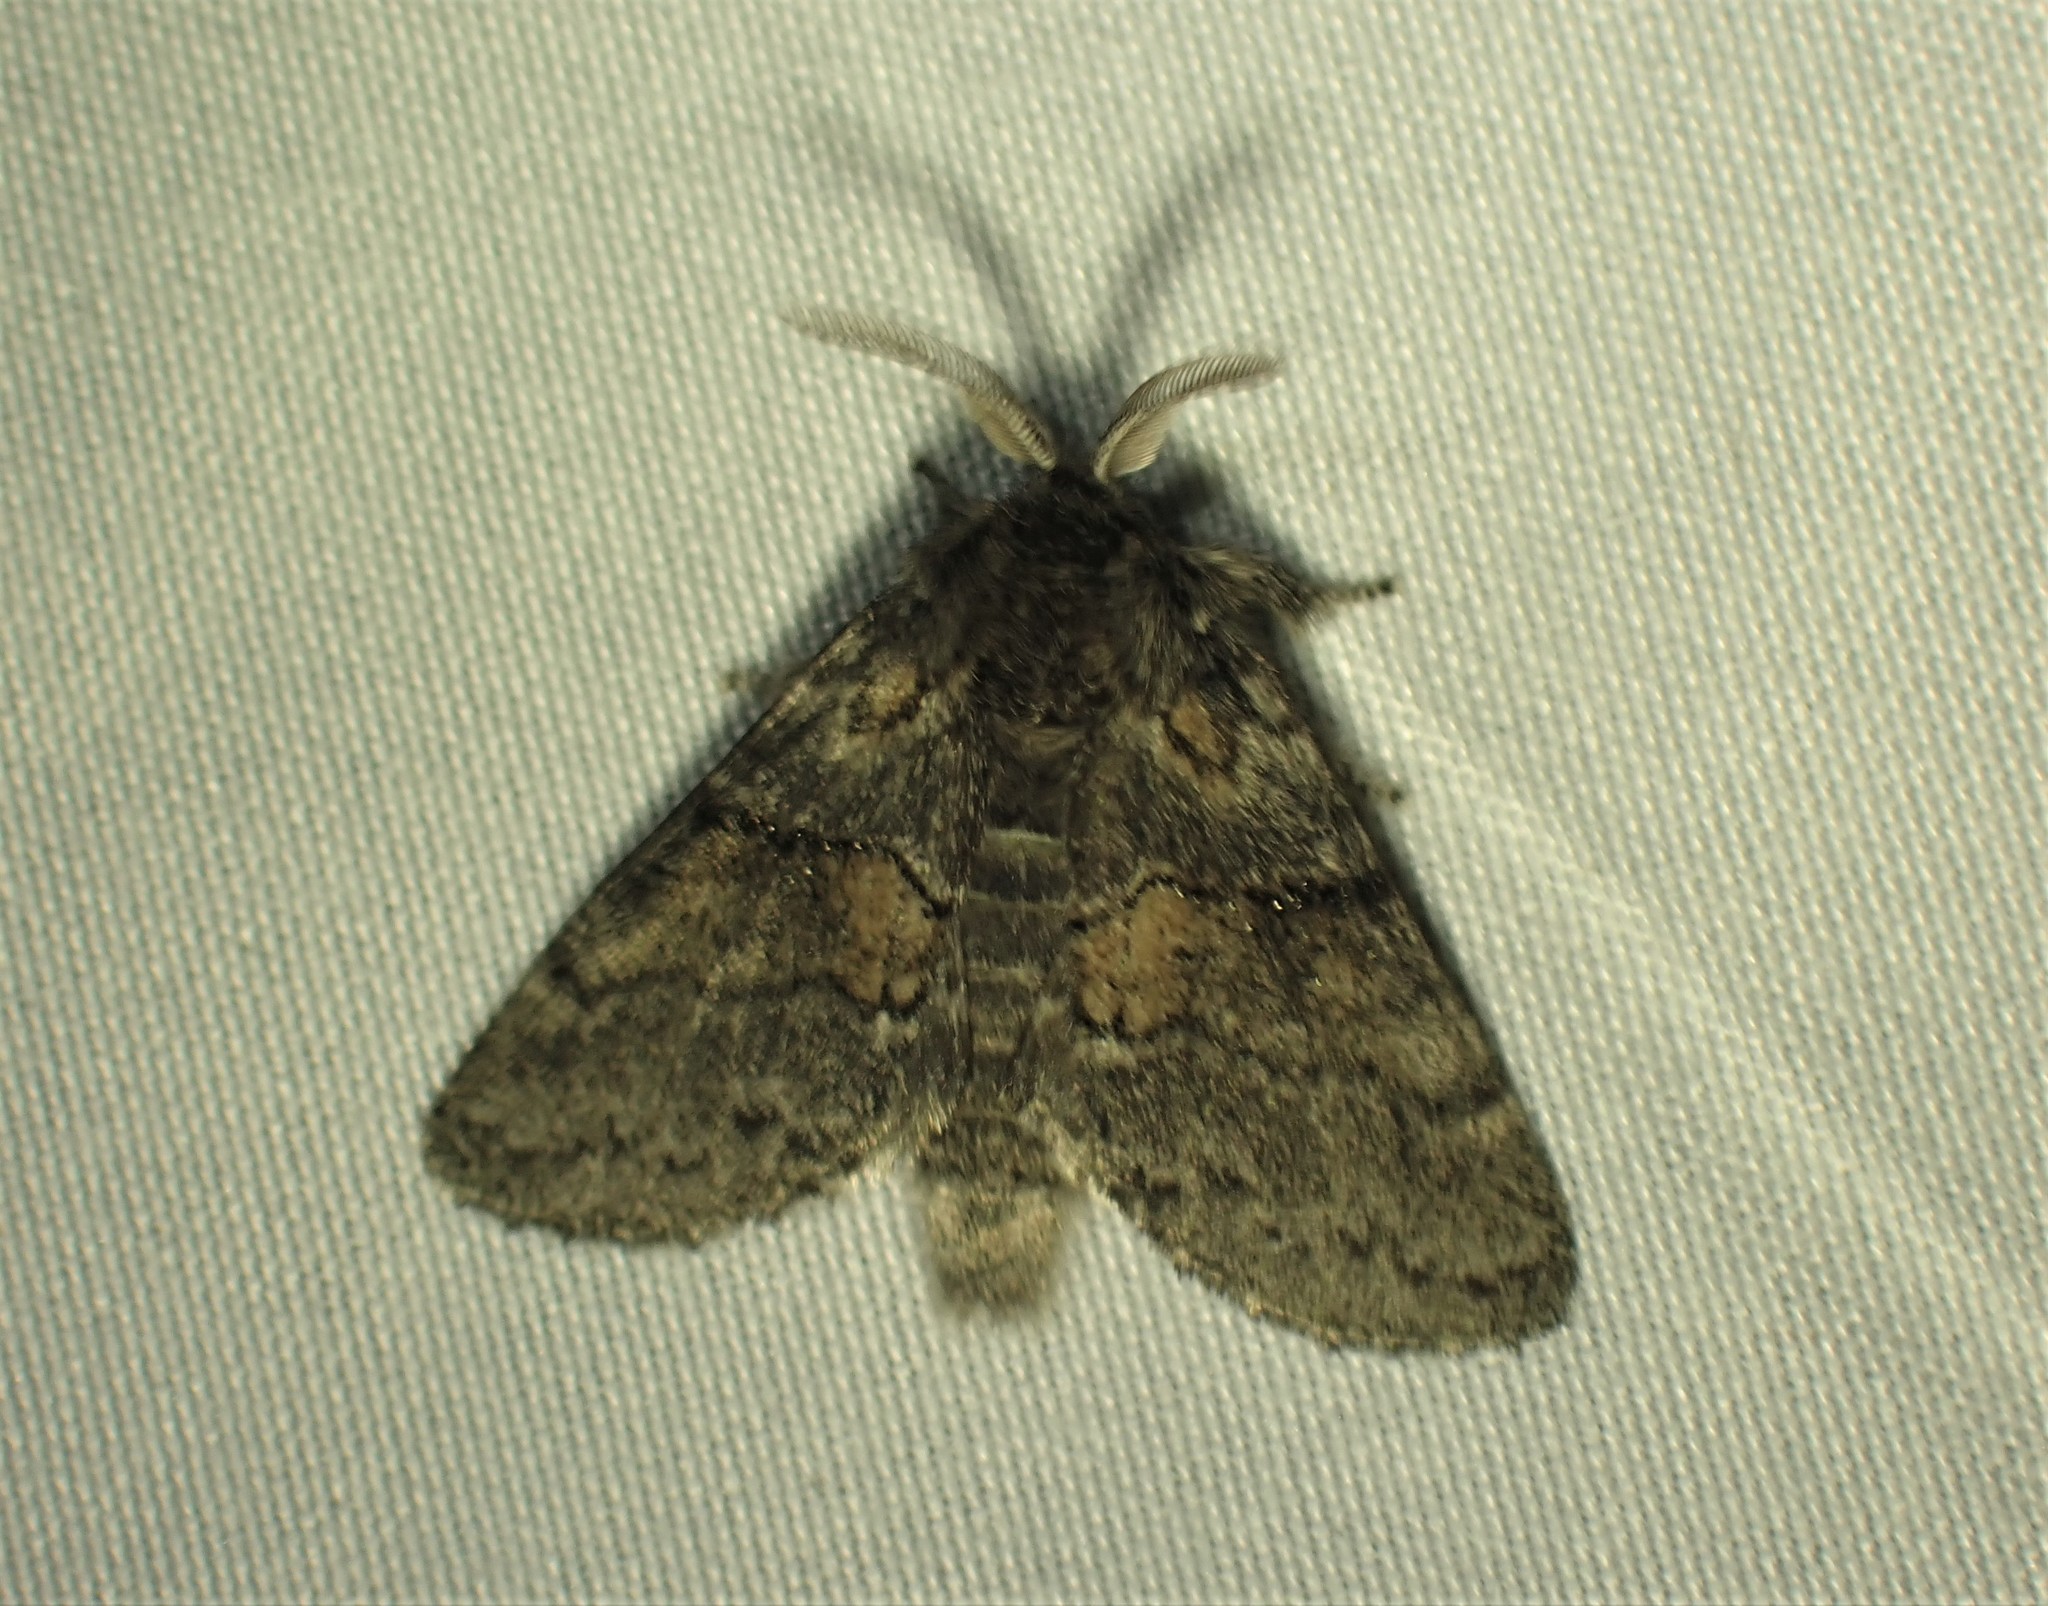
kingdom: Animalia
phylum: Arthropoda
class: Insecta
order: Lepidoptera
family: Notodontidae
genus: Gluphisia
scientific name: Gluphisia septentrionis
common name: Common gluphisia
